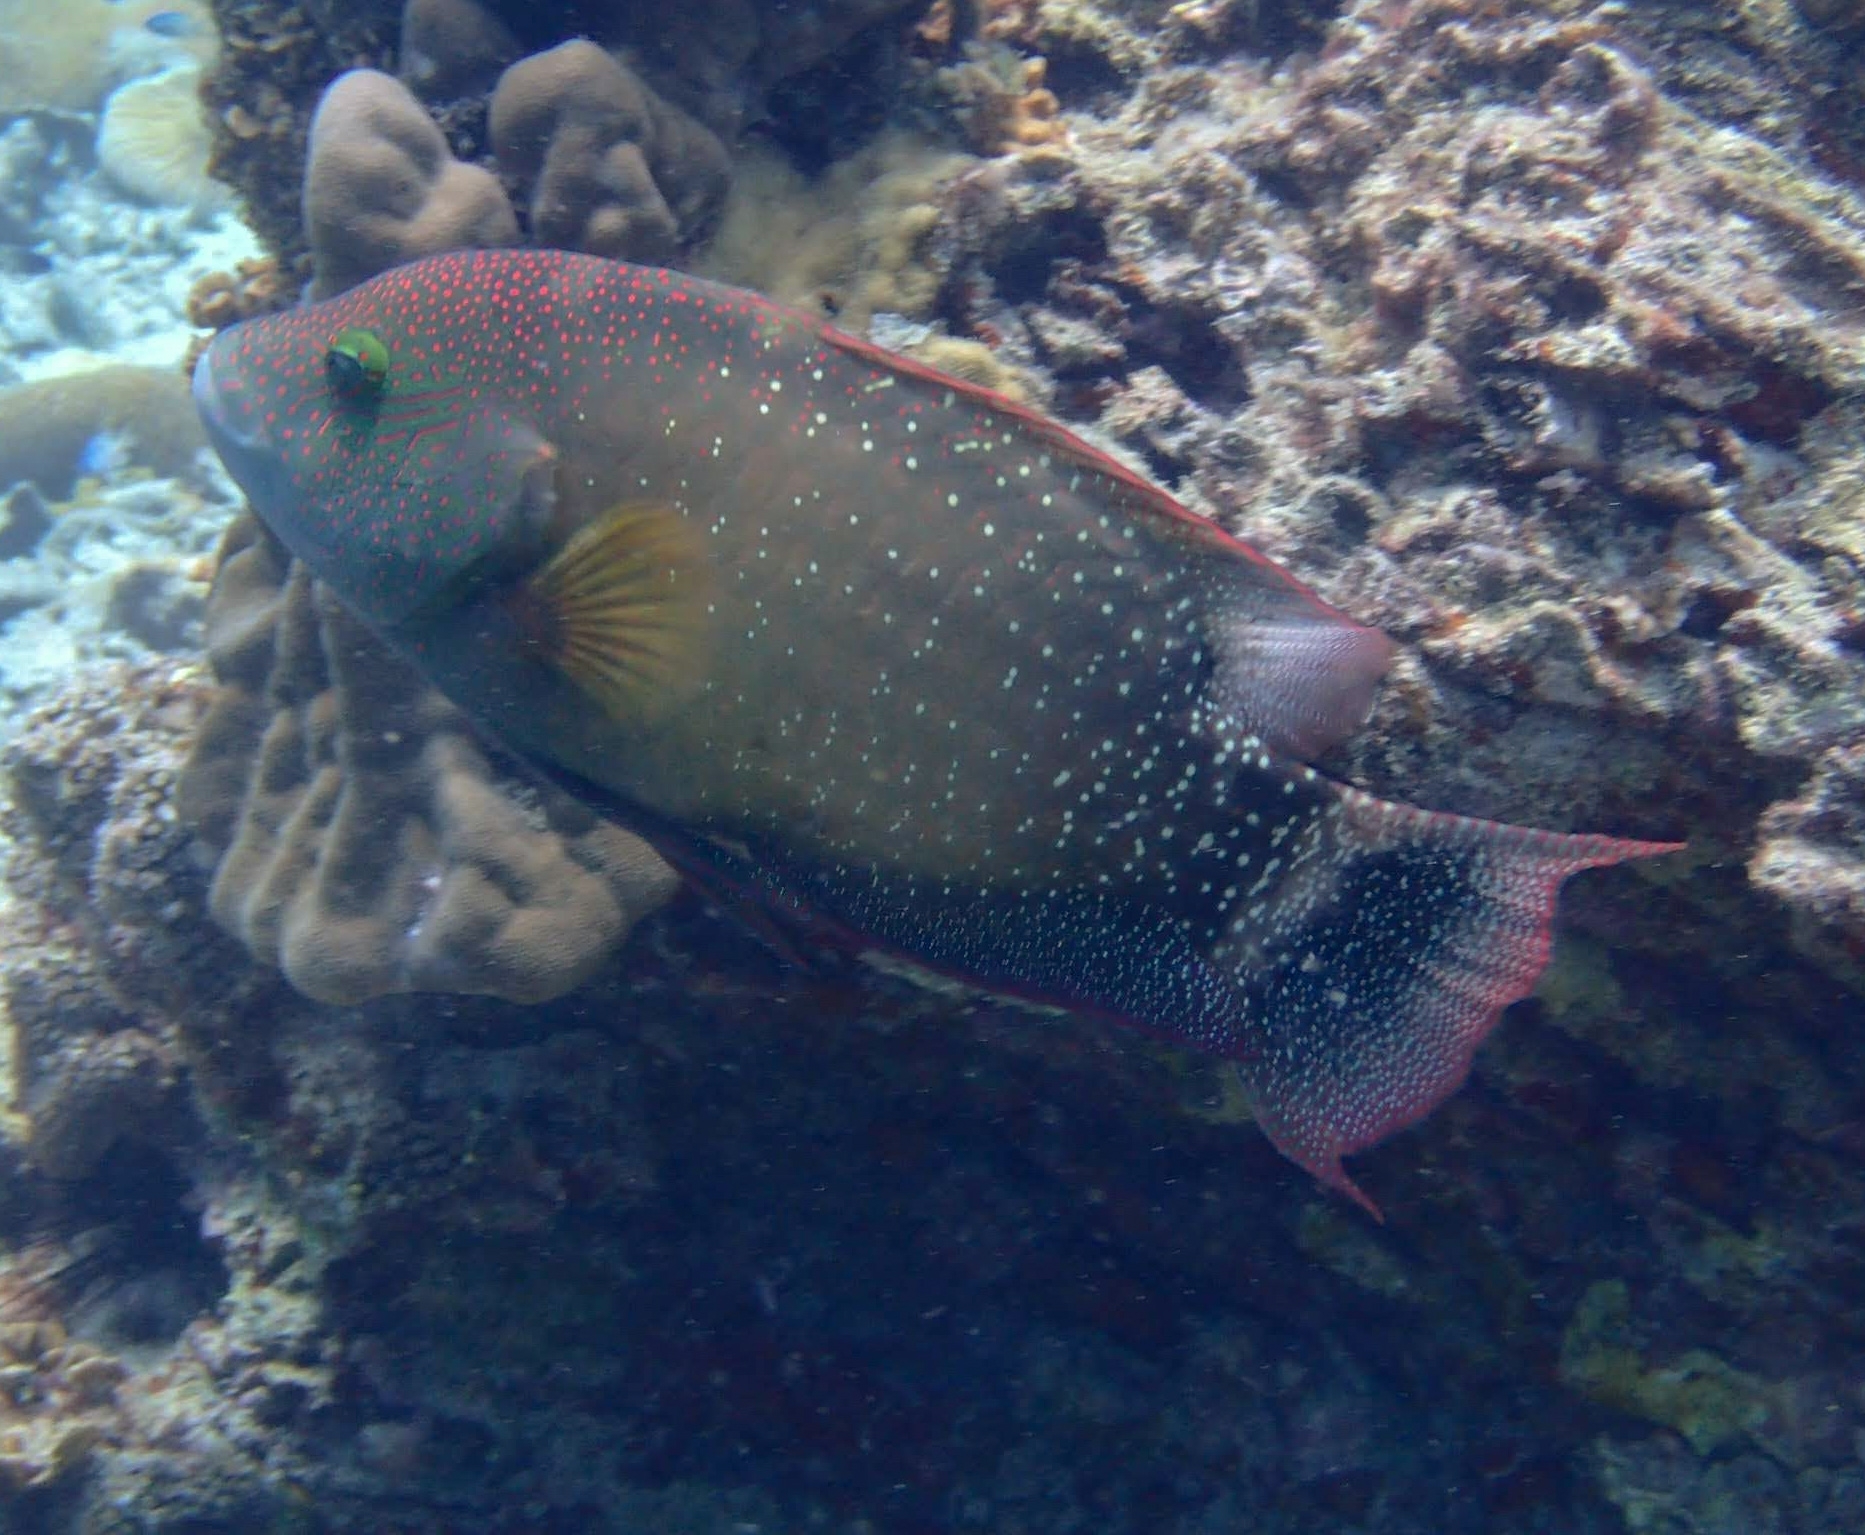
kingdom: Animalia
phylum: Chordata
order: Perciformes
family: Labridae
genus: Cheilinus
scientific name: Cheilinus chlorourus
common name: Floral wrasse
